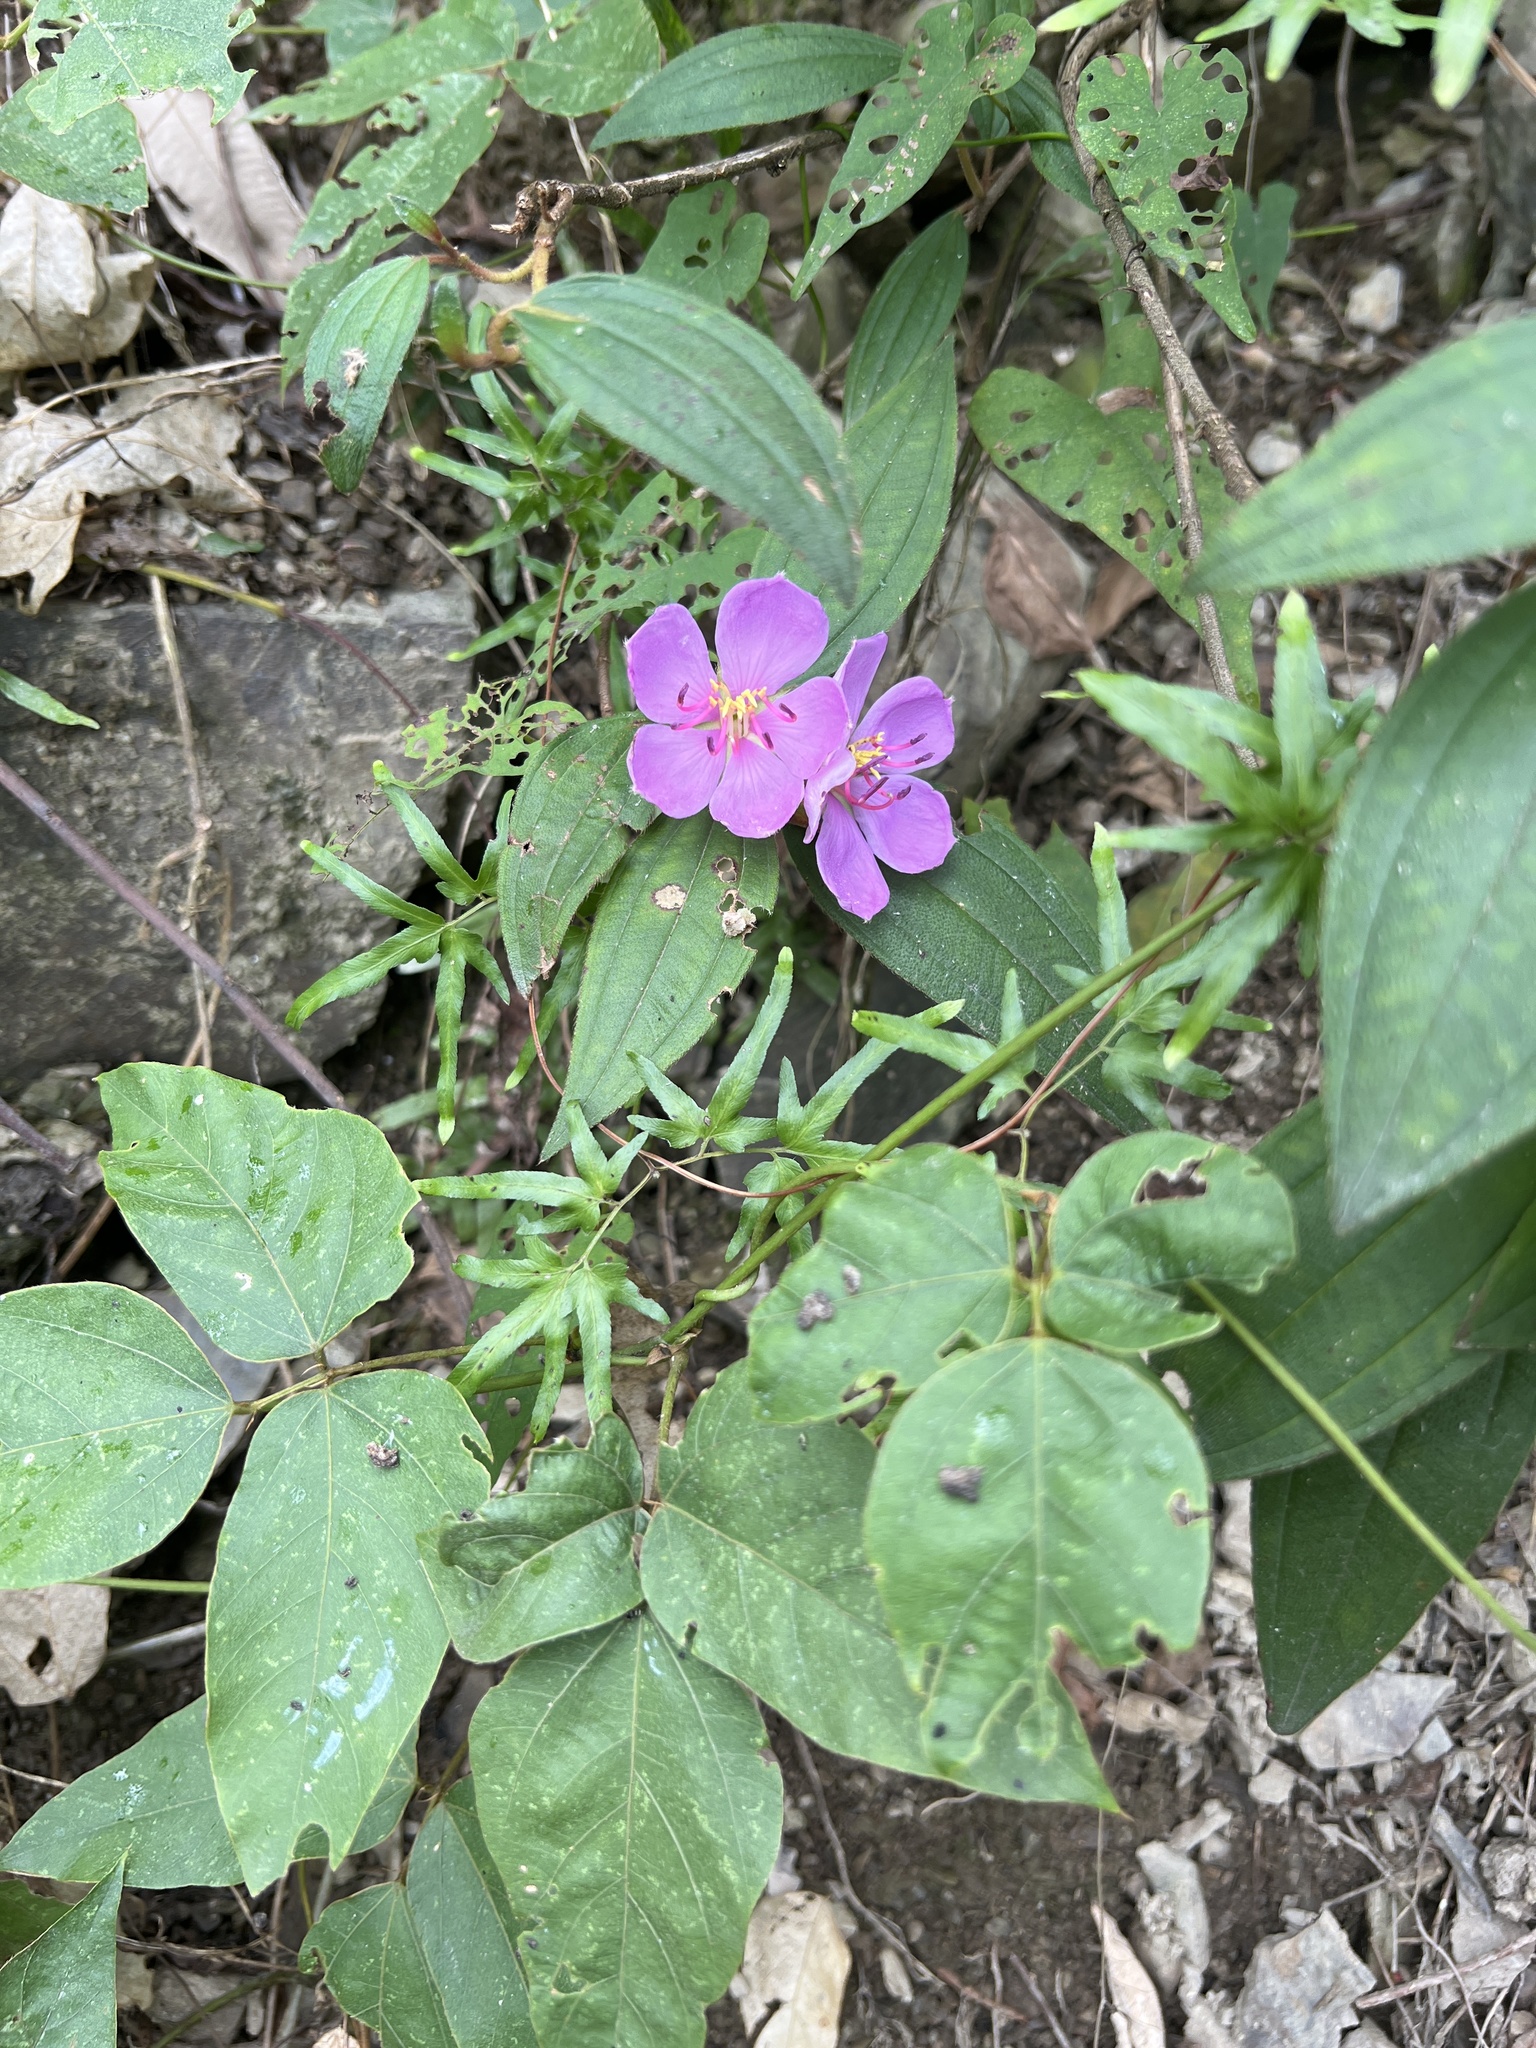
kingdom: Plantae
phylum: Tracheophyta
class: Magnoliopsida
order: Myrtales
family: Melastomataceae
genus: Melastoma
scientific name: Melastoma malabathricum
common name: Indian-rhododendron
